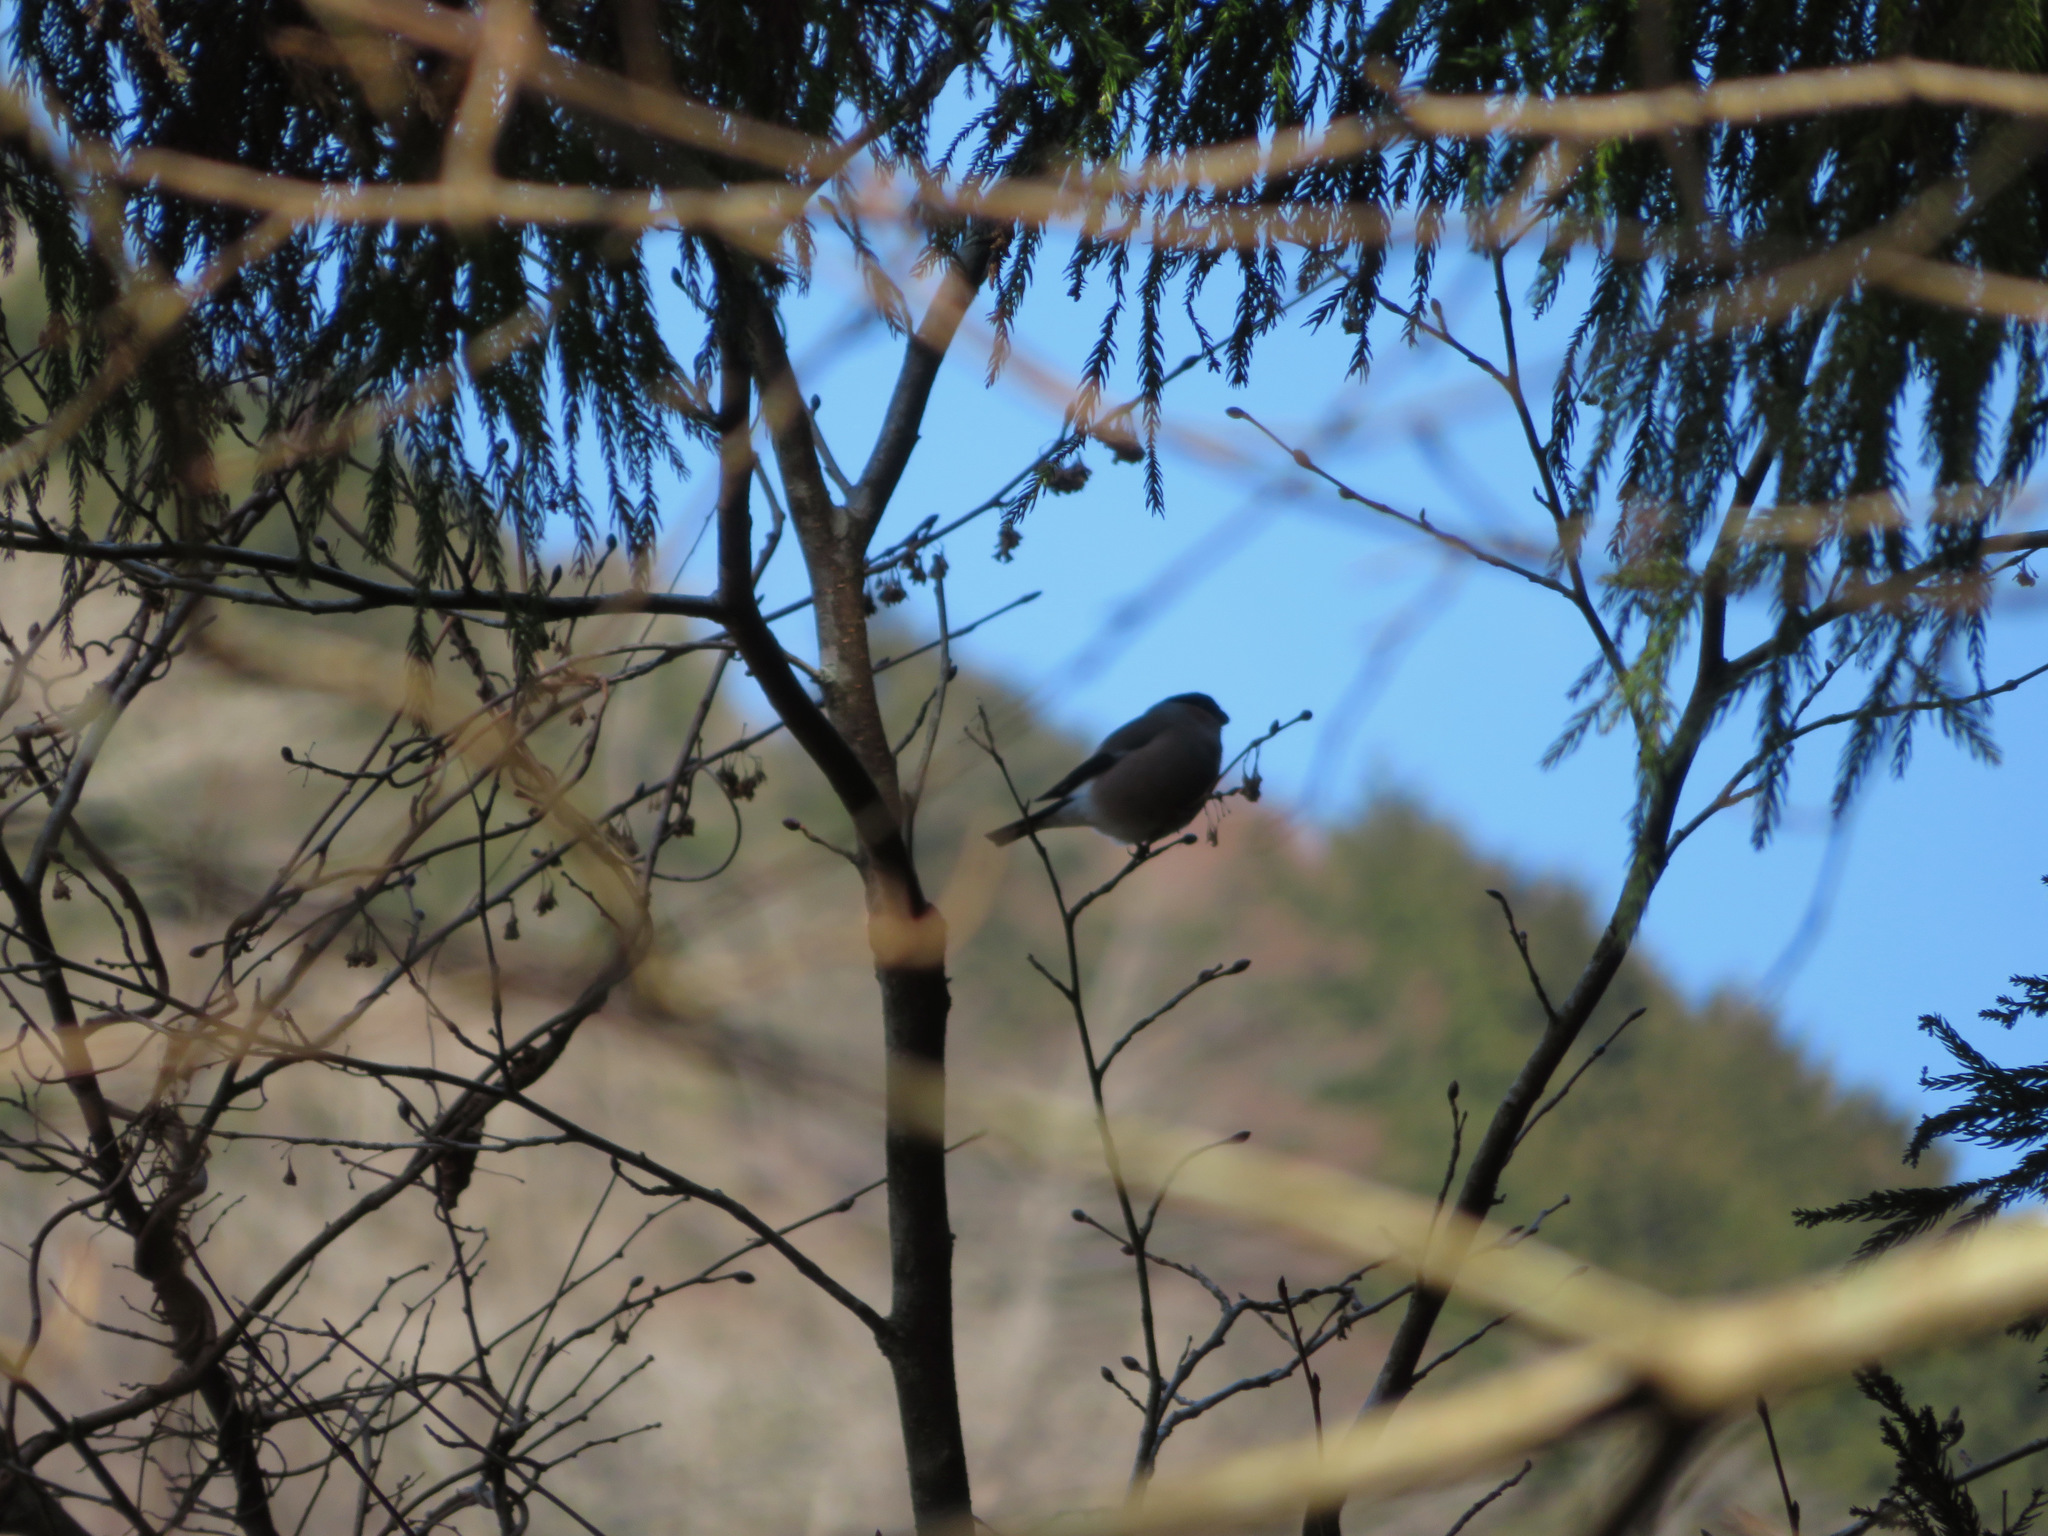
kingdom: Animalia
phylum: Chordata
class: Aves
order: Passeriformes
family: Fringillidae
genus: Pyrrhula
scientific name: Pyrrhula pyrrhula
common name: Eurasian bullfinch
